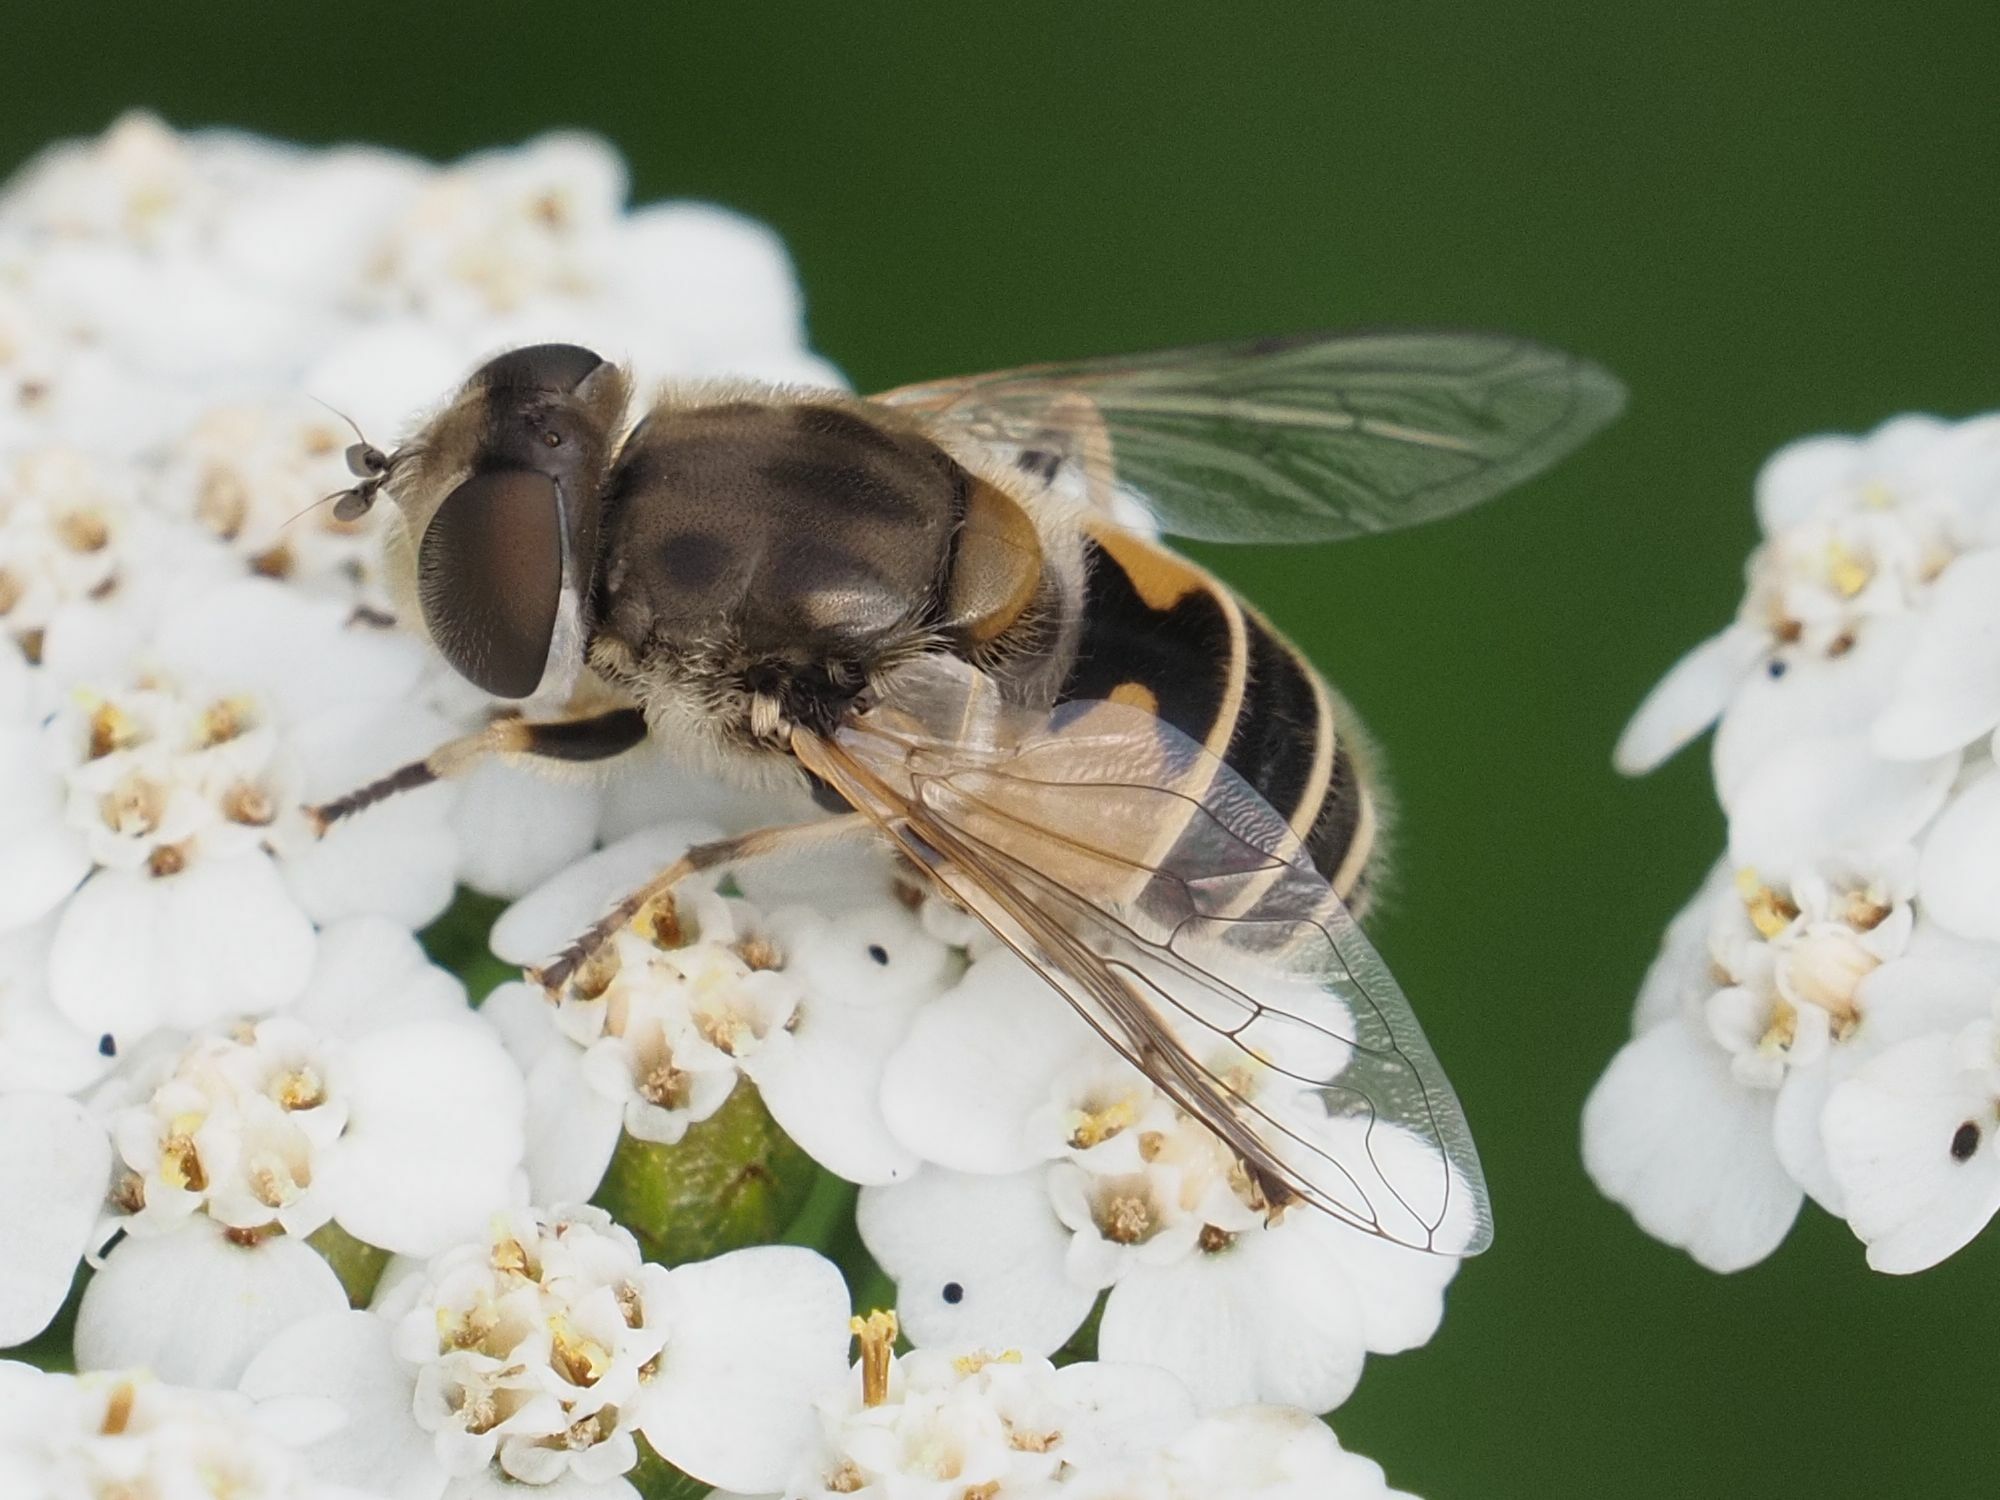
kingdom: Animalia
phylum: Arthropoda
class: Insecta
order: Diptera
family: Syrphidae
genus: Eristalis
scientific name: Eristalis arbustorum
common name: Hover fly
